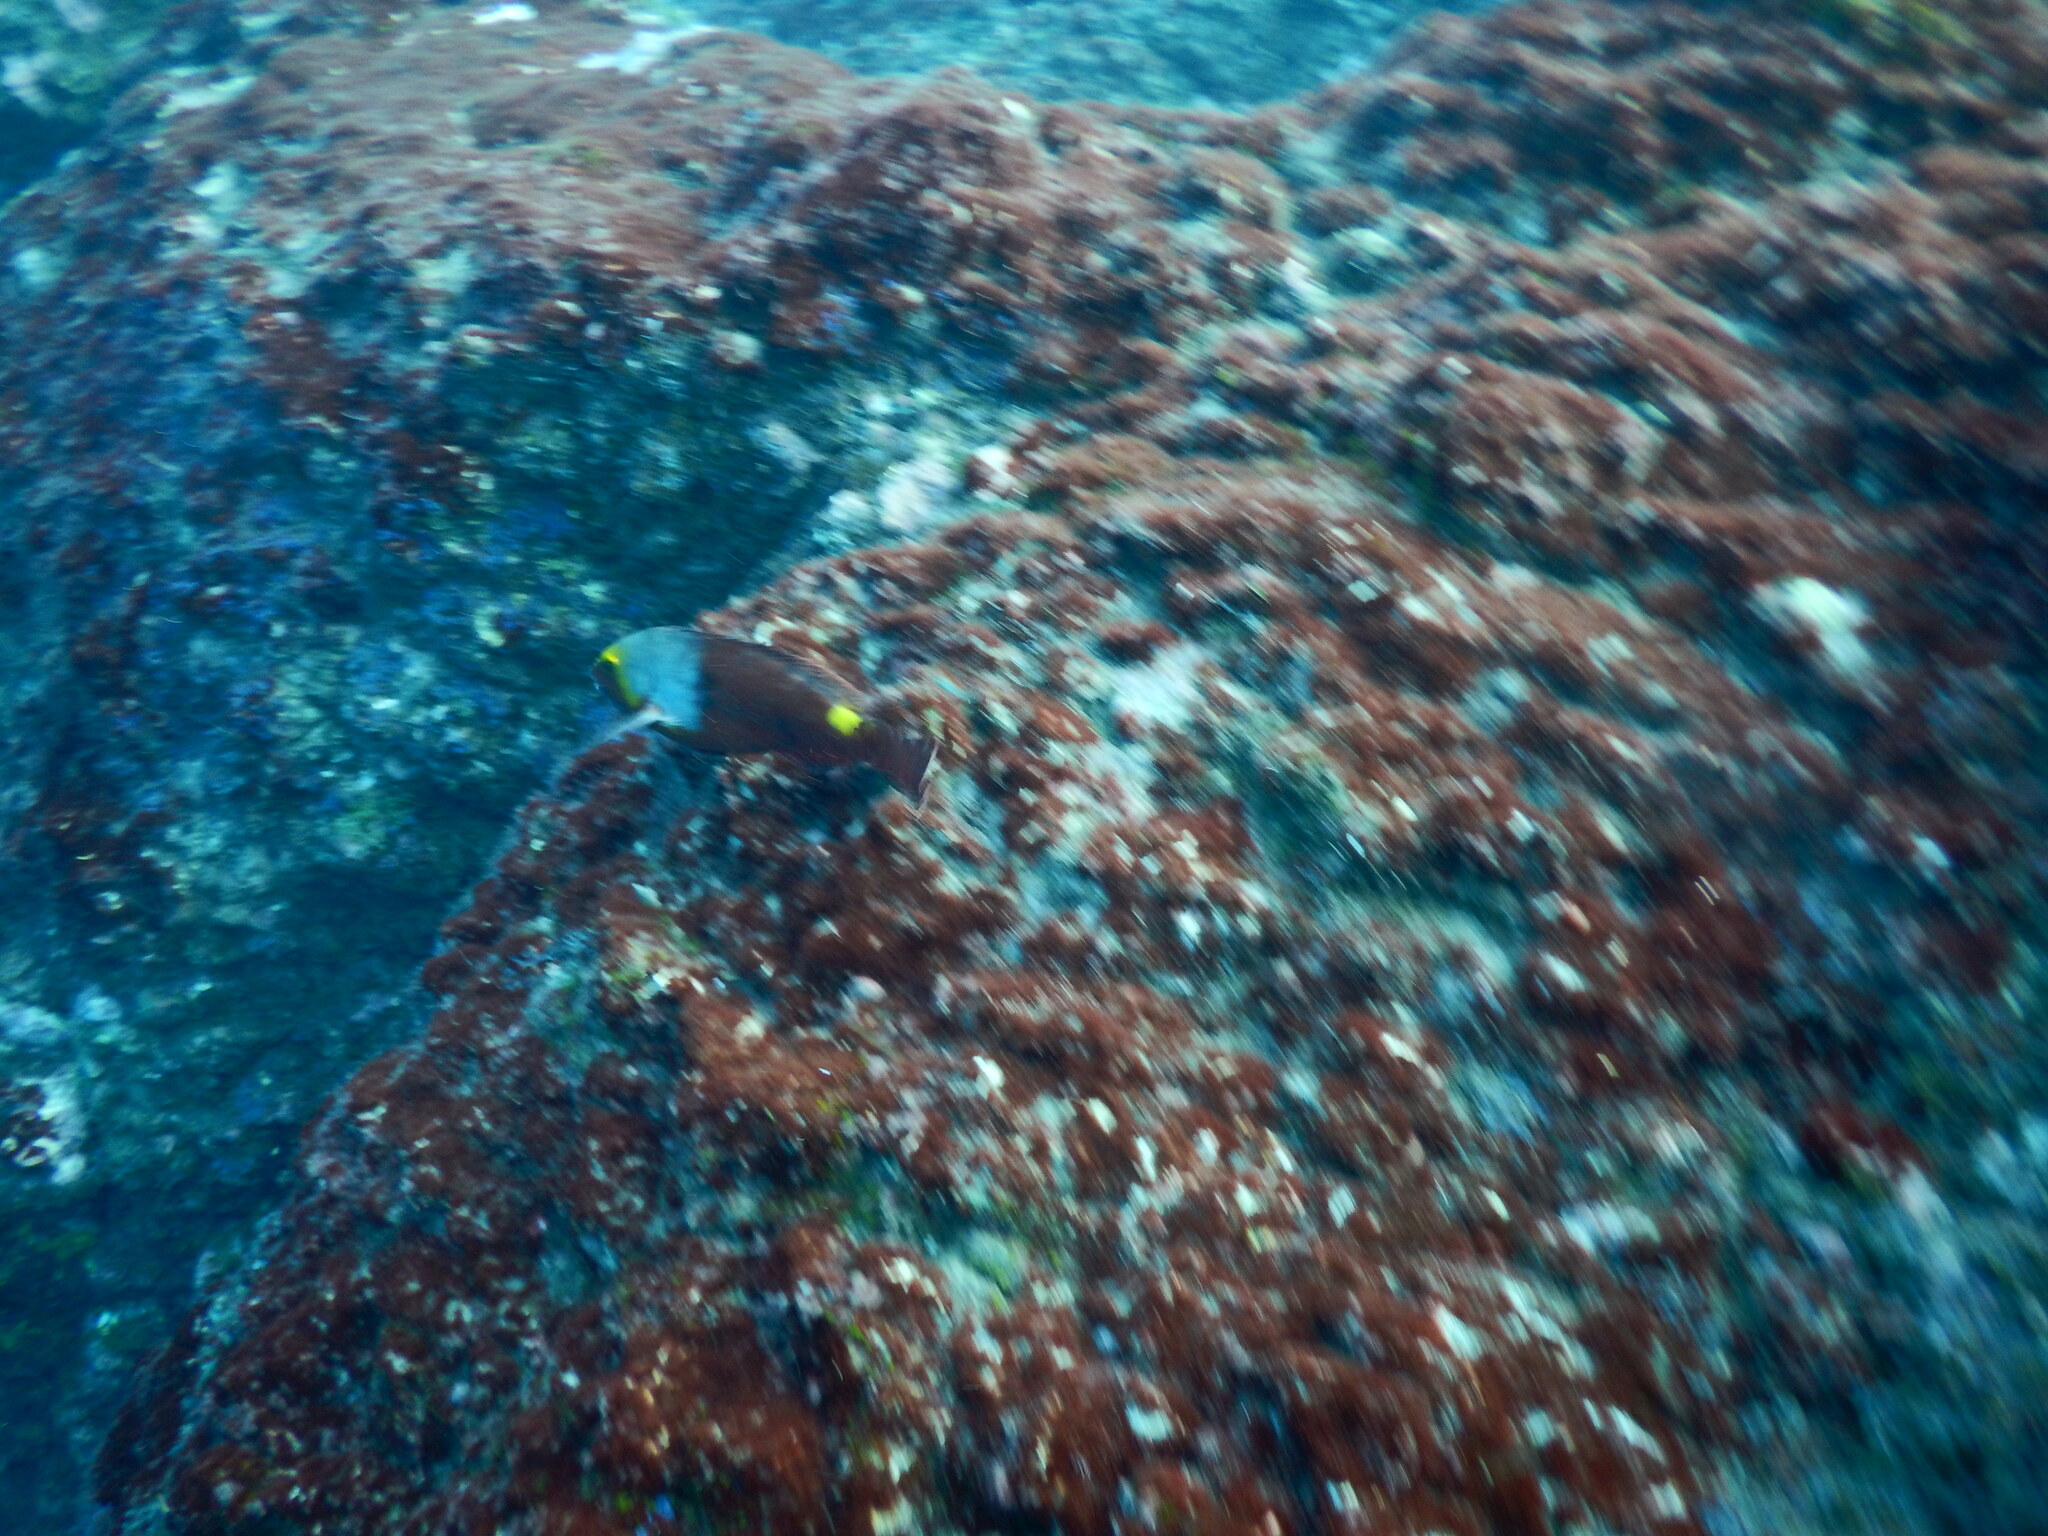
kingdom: Animalia
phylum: Chordata
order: Perciformes
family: Scaridae
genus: Sparisoma
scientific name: Sparisoma cretense
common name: Parrotfish
